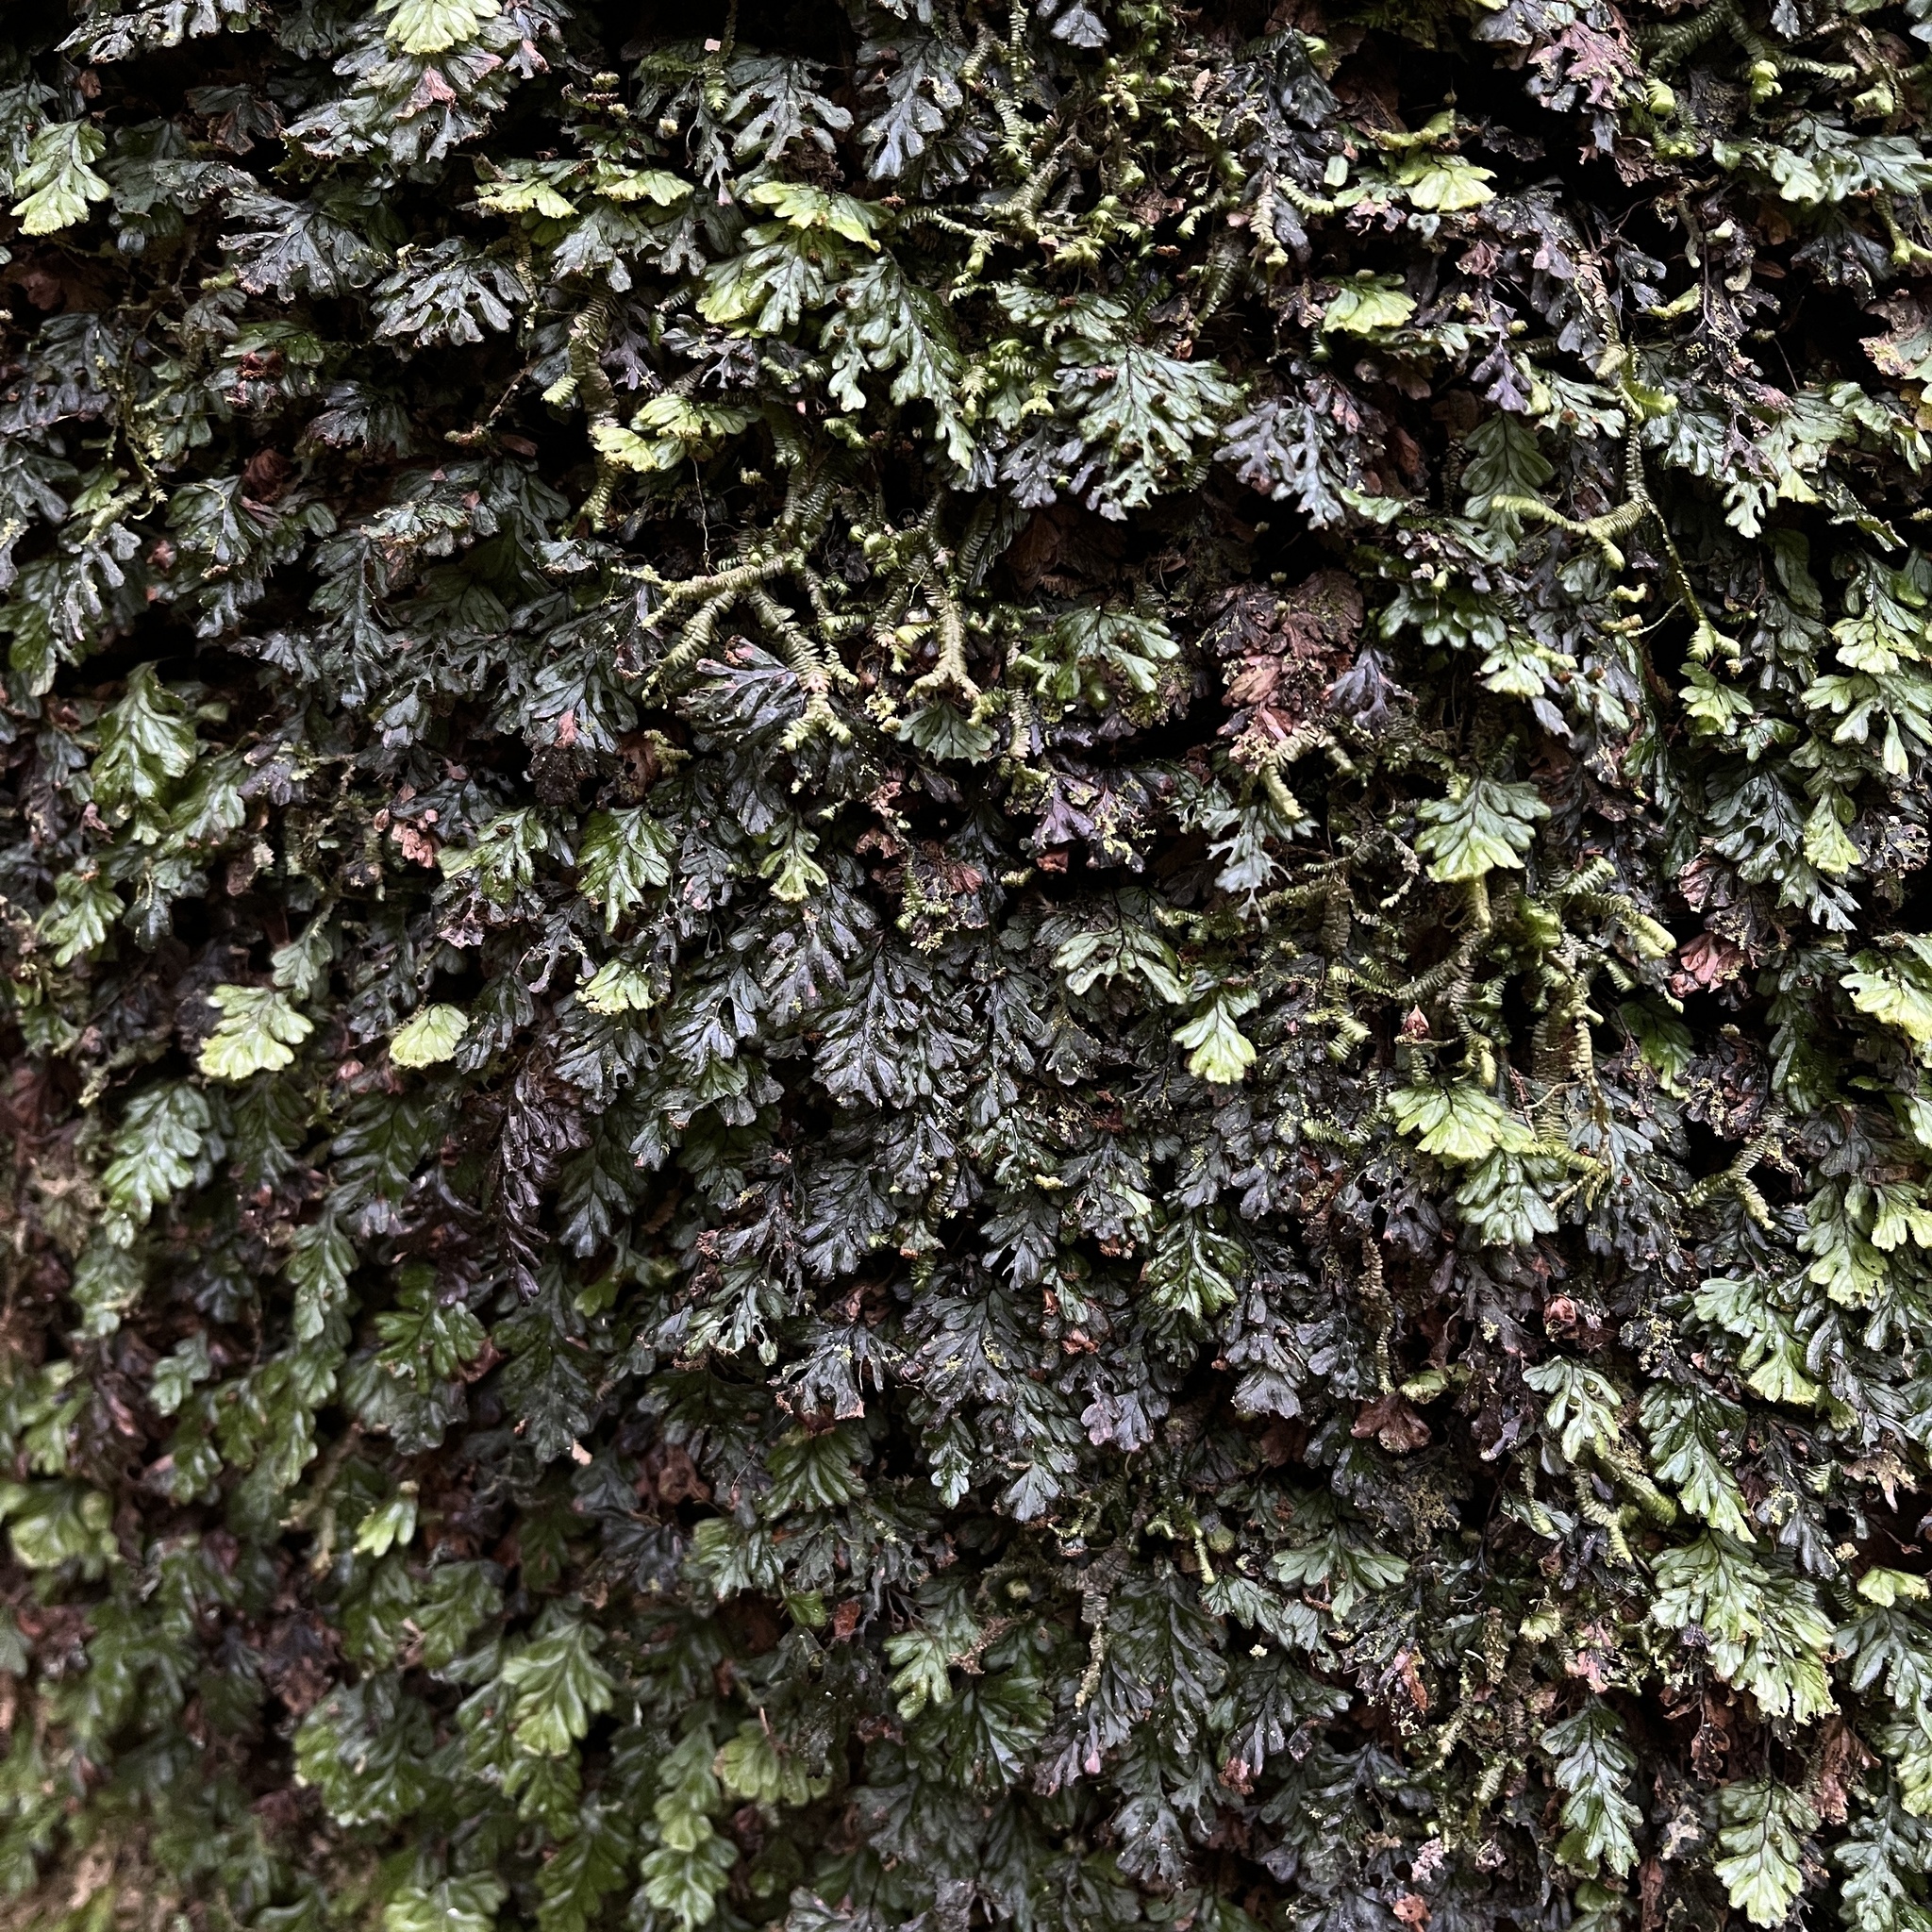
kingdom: Plantae
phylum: Tracheophyta
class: Polypodiopsida
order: Hymenophyllales
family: Hymenophyllaceae
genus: Hymenophyllum
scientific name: Hymenophyllum dicranotrichum
